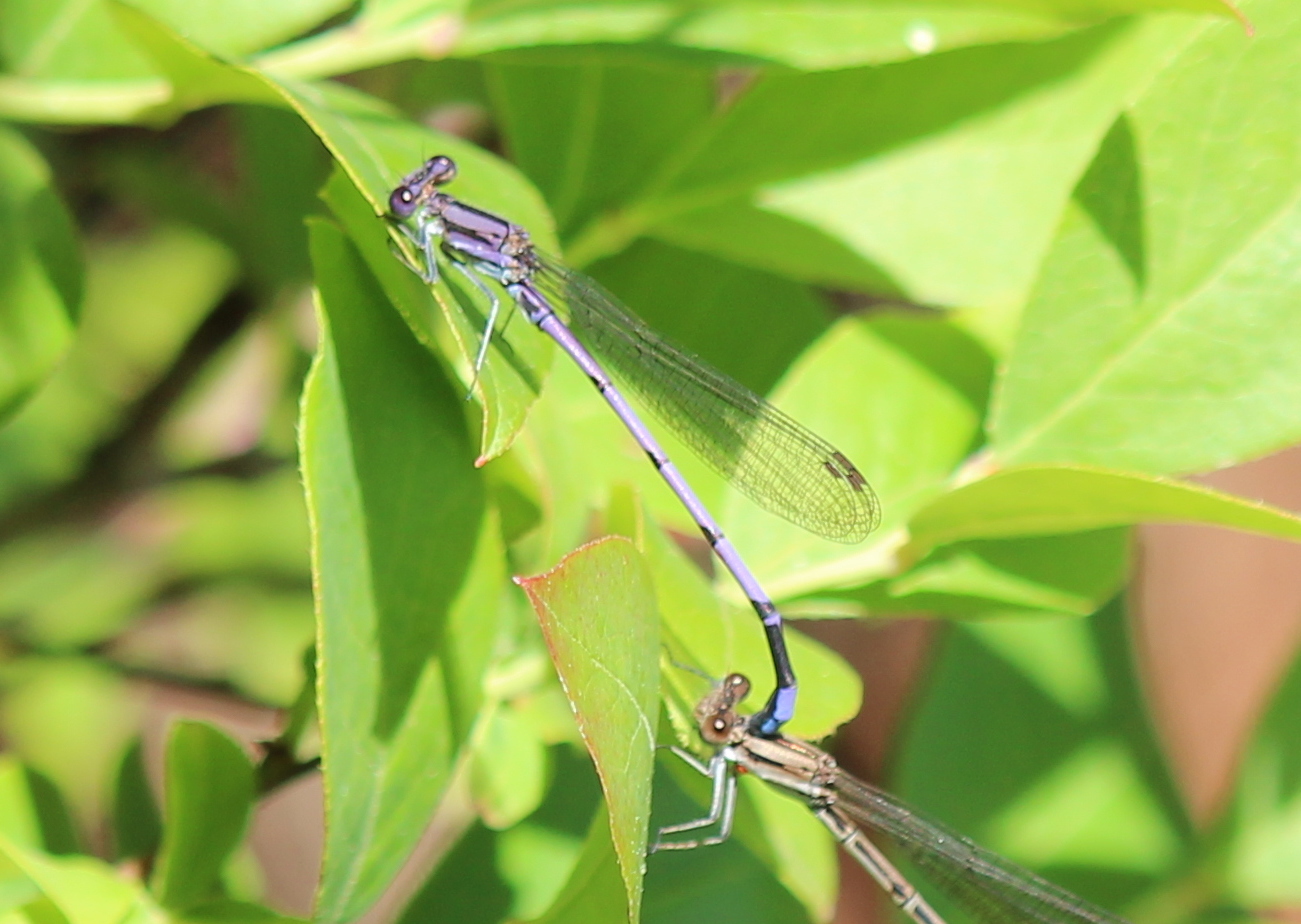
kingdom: Animalia
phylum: Arthropoda
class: Insecta
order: Odonata
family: Coenagrionidae
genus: Argia
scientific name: Argia fumipennis
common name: Variable dancer
